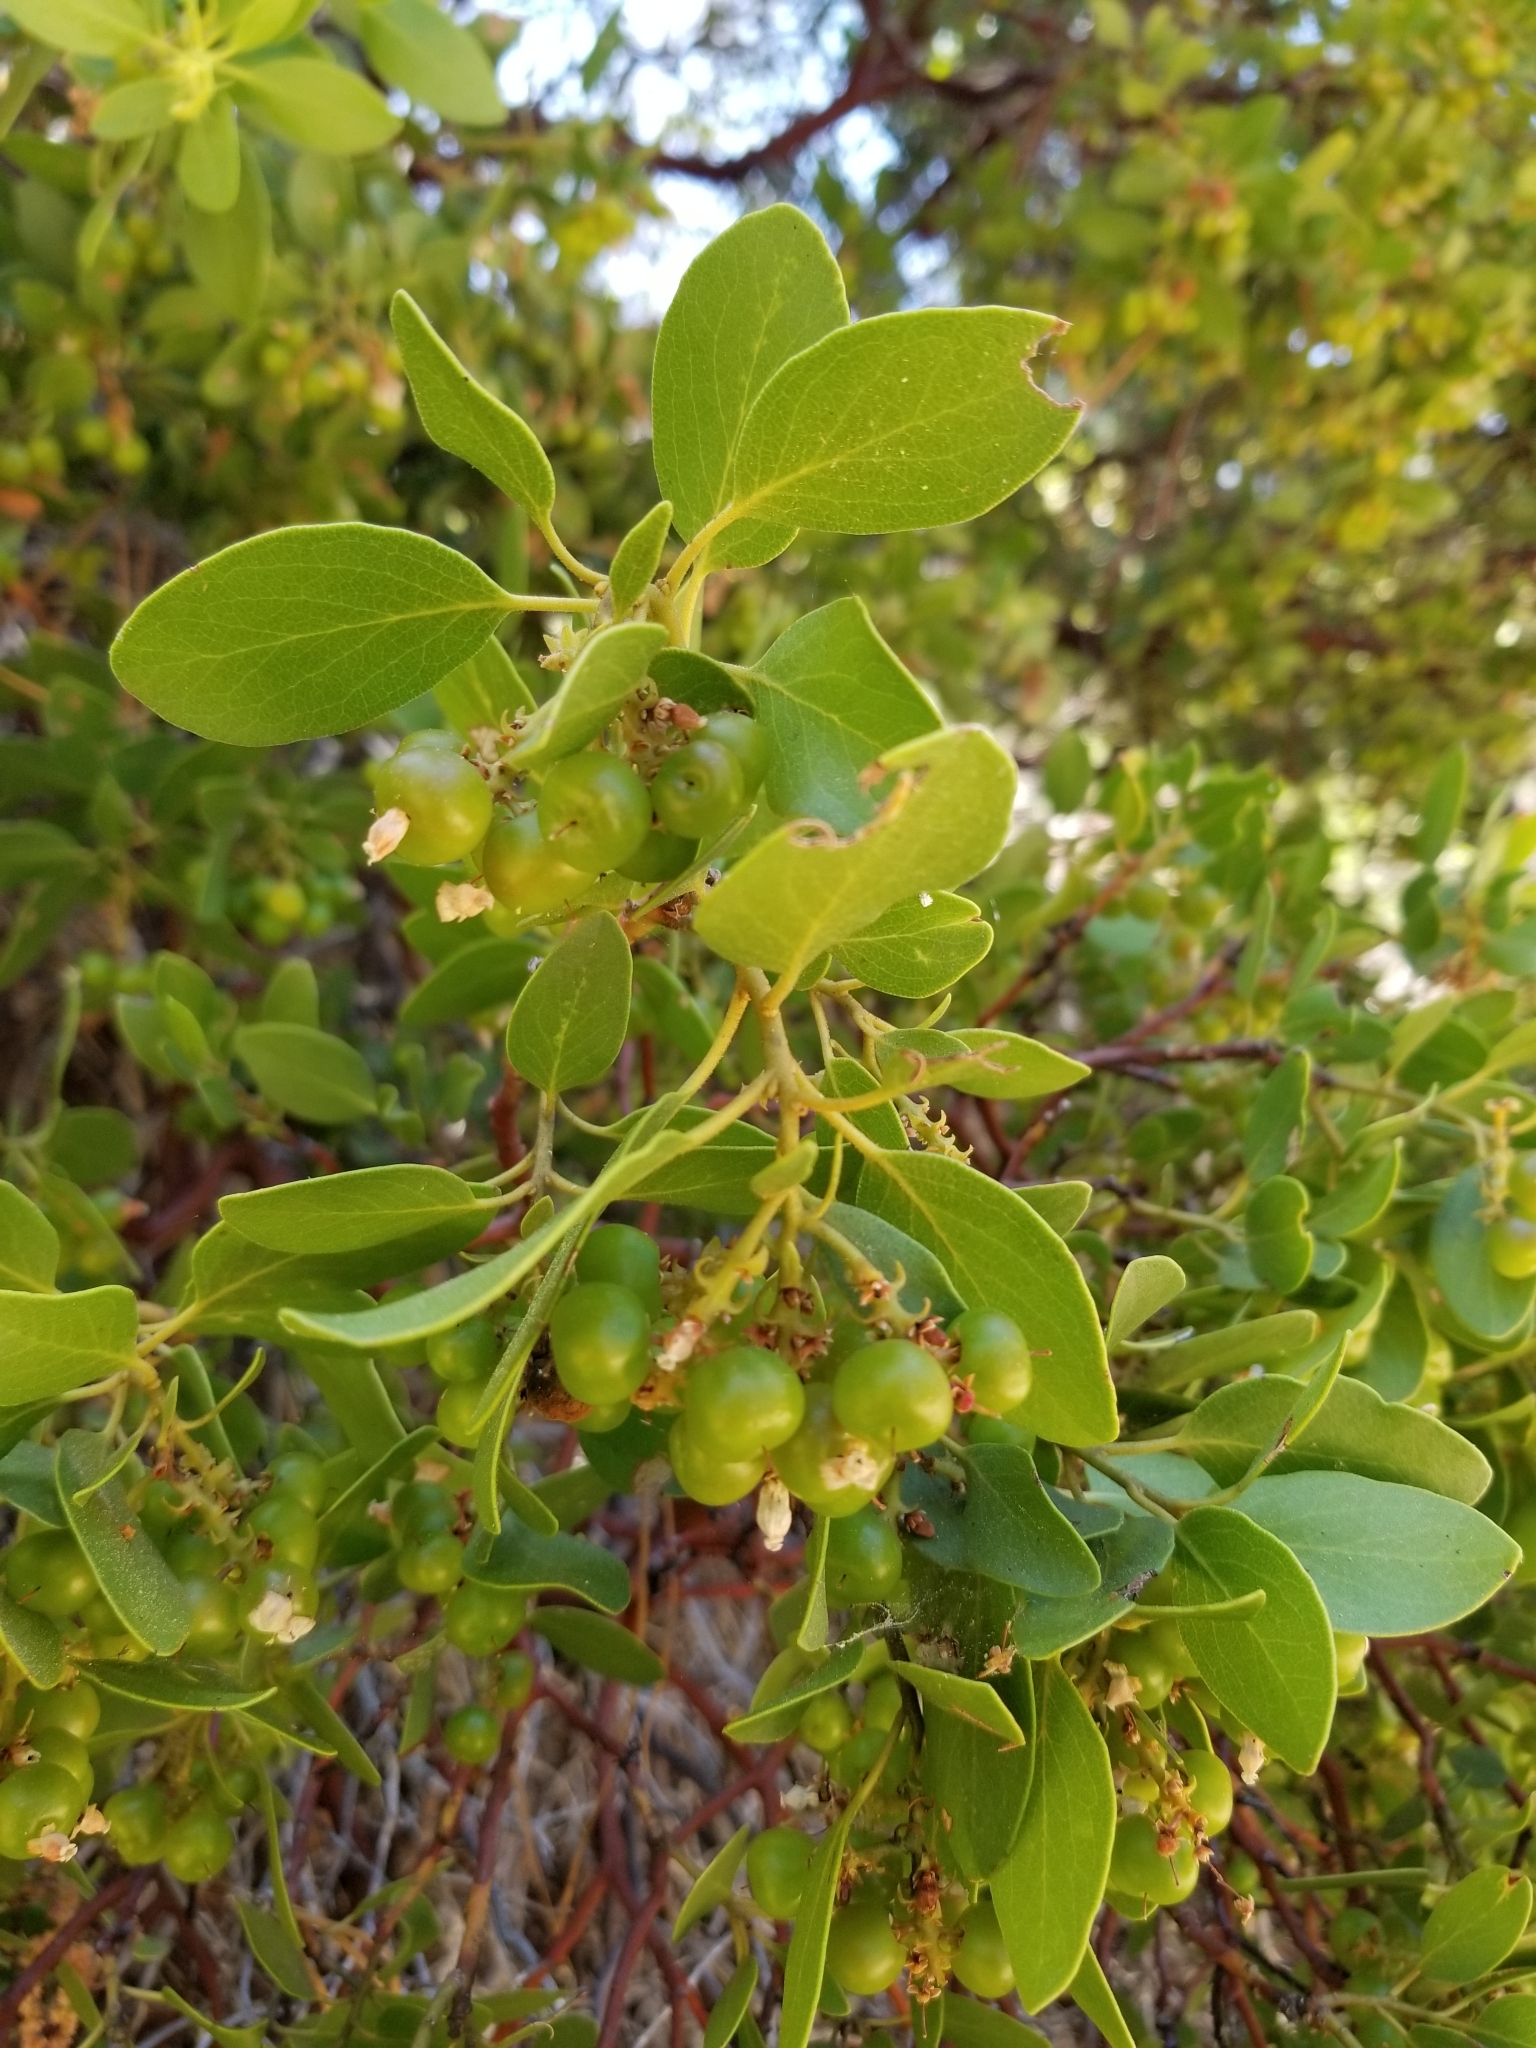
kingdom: Plantae
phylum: Tracheophyta
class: Magnoliopsida
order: Ericales
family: Ericaceae
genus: Arctostaphylos
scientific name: Arctostaphylos patula
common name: Green-leaf manzanita
